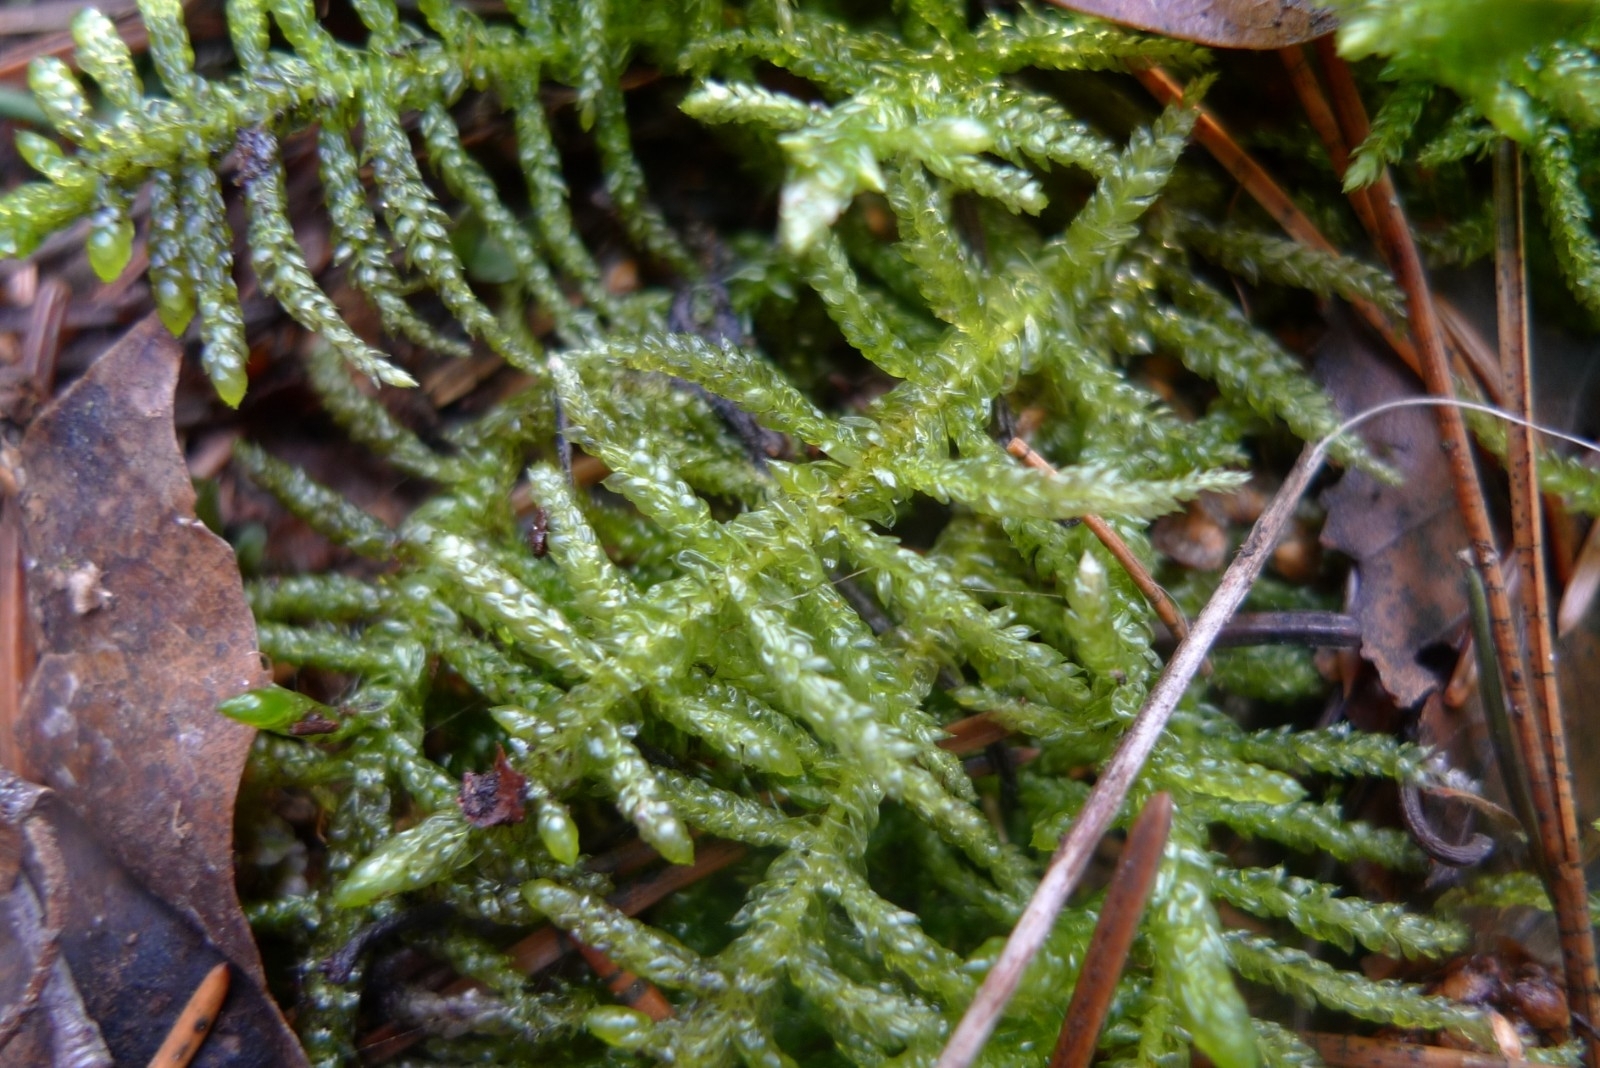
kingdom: Plantae
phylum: Bryophyta
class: Bryopsida
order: Hypnales
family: Brachytheciaceae
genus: Pseudoscleropodium
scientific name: Pseudoscleropodium purum
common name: Neat feather-moss
